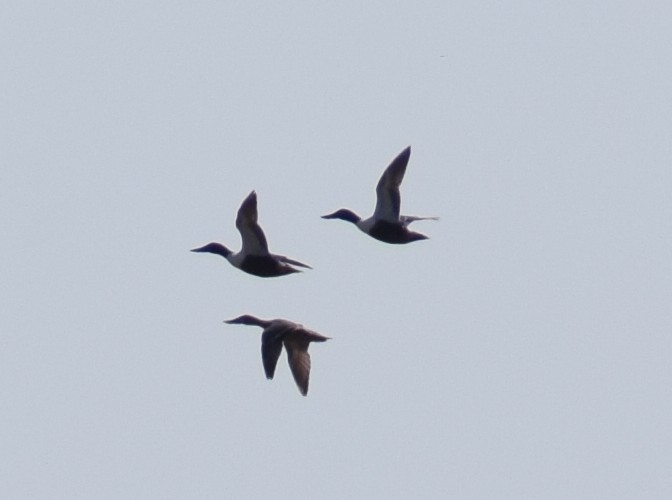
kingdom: Animalia
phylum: Chordata
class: Aves
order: Anseriformes
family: Anatidae
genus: Spatula
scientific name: Spatula clypeata
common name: Northern shoveler
